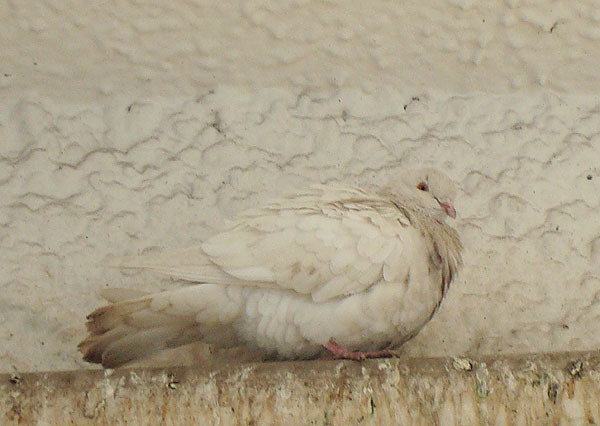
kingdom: Animalia
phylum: Chordata
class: Aves
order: Columbiformes
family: Columbidae
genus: Columba
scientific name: Columba livia
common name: Rock pigeon
